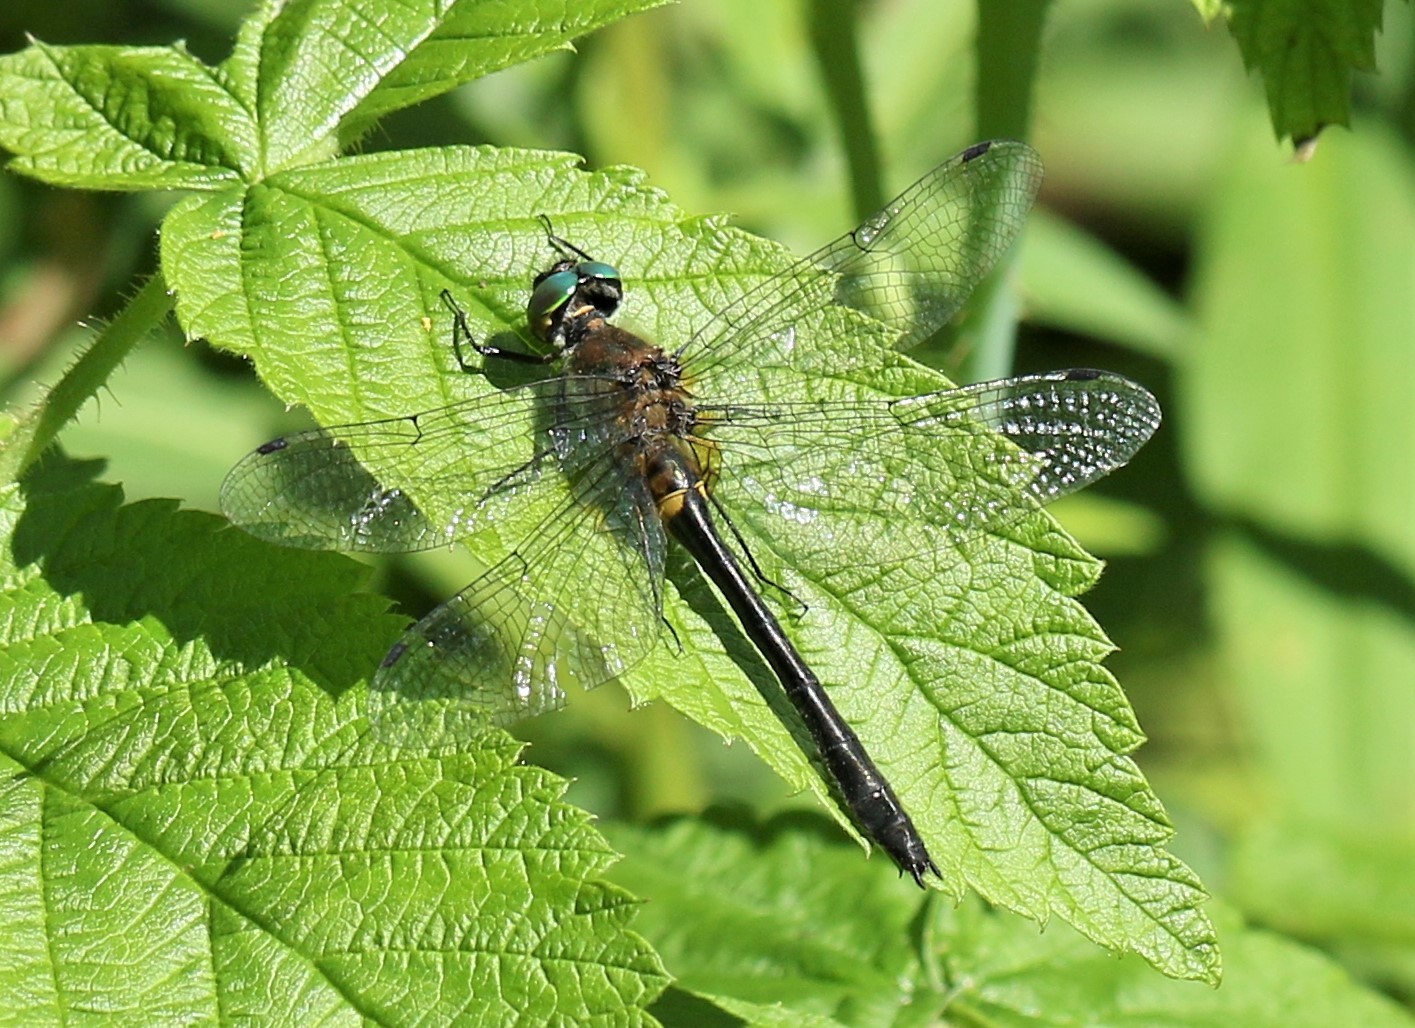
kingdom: Animalia
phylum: Arthropoda
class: Insecta
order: Odonata
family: Corduliidae
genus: Dorocordulia
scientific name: Dorocordulia libera
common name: Racket-tailed emerald
